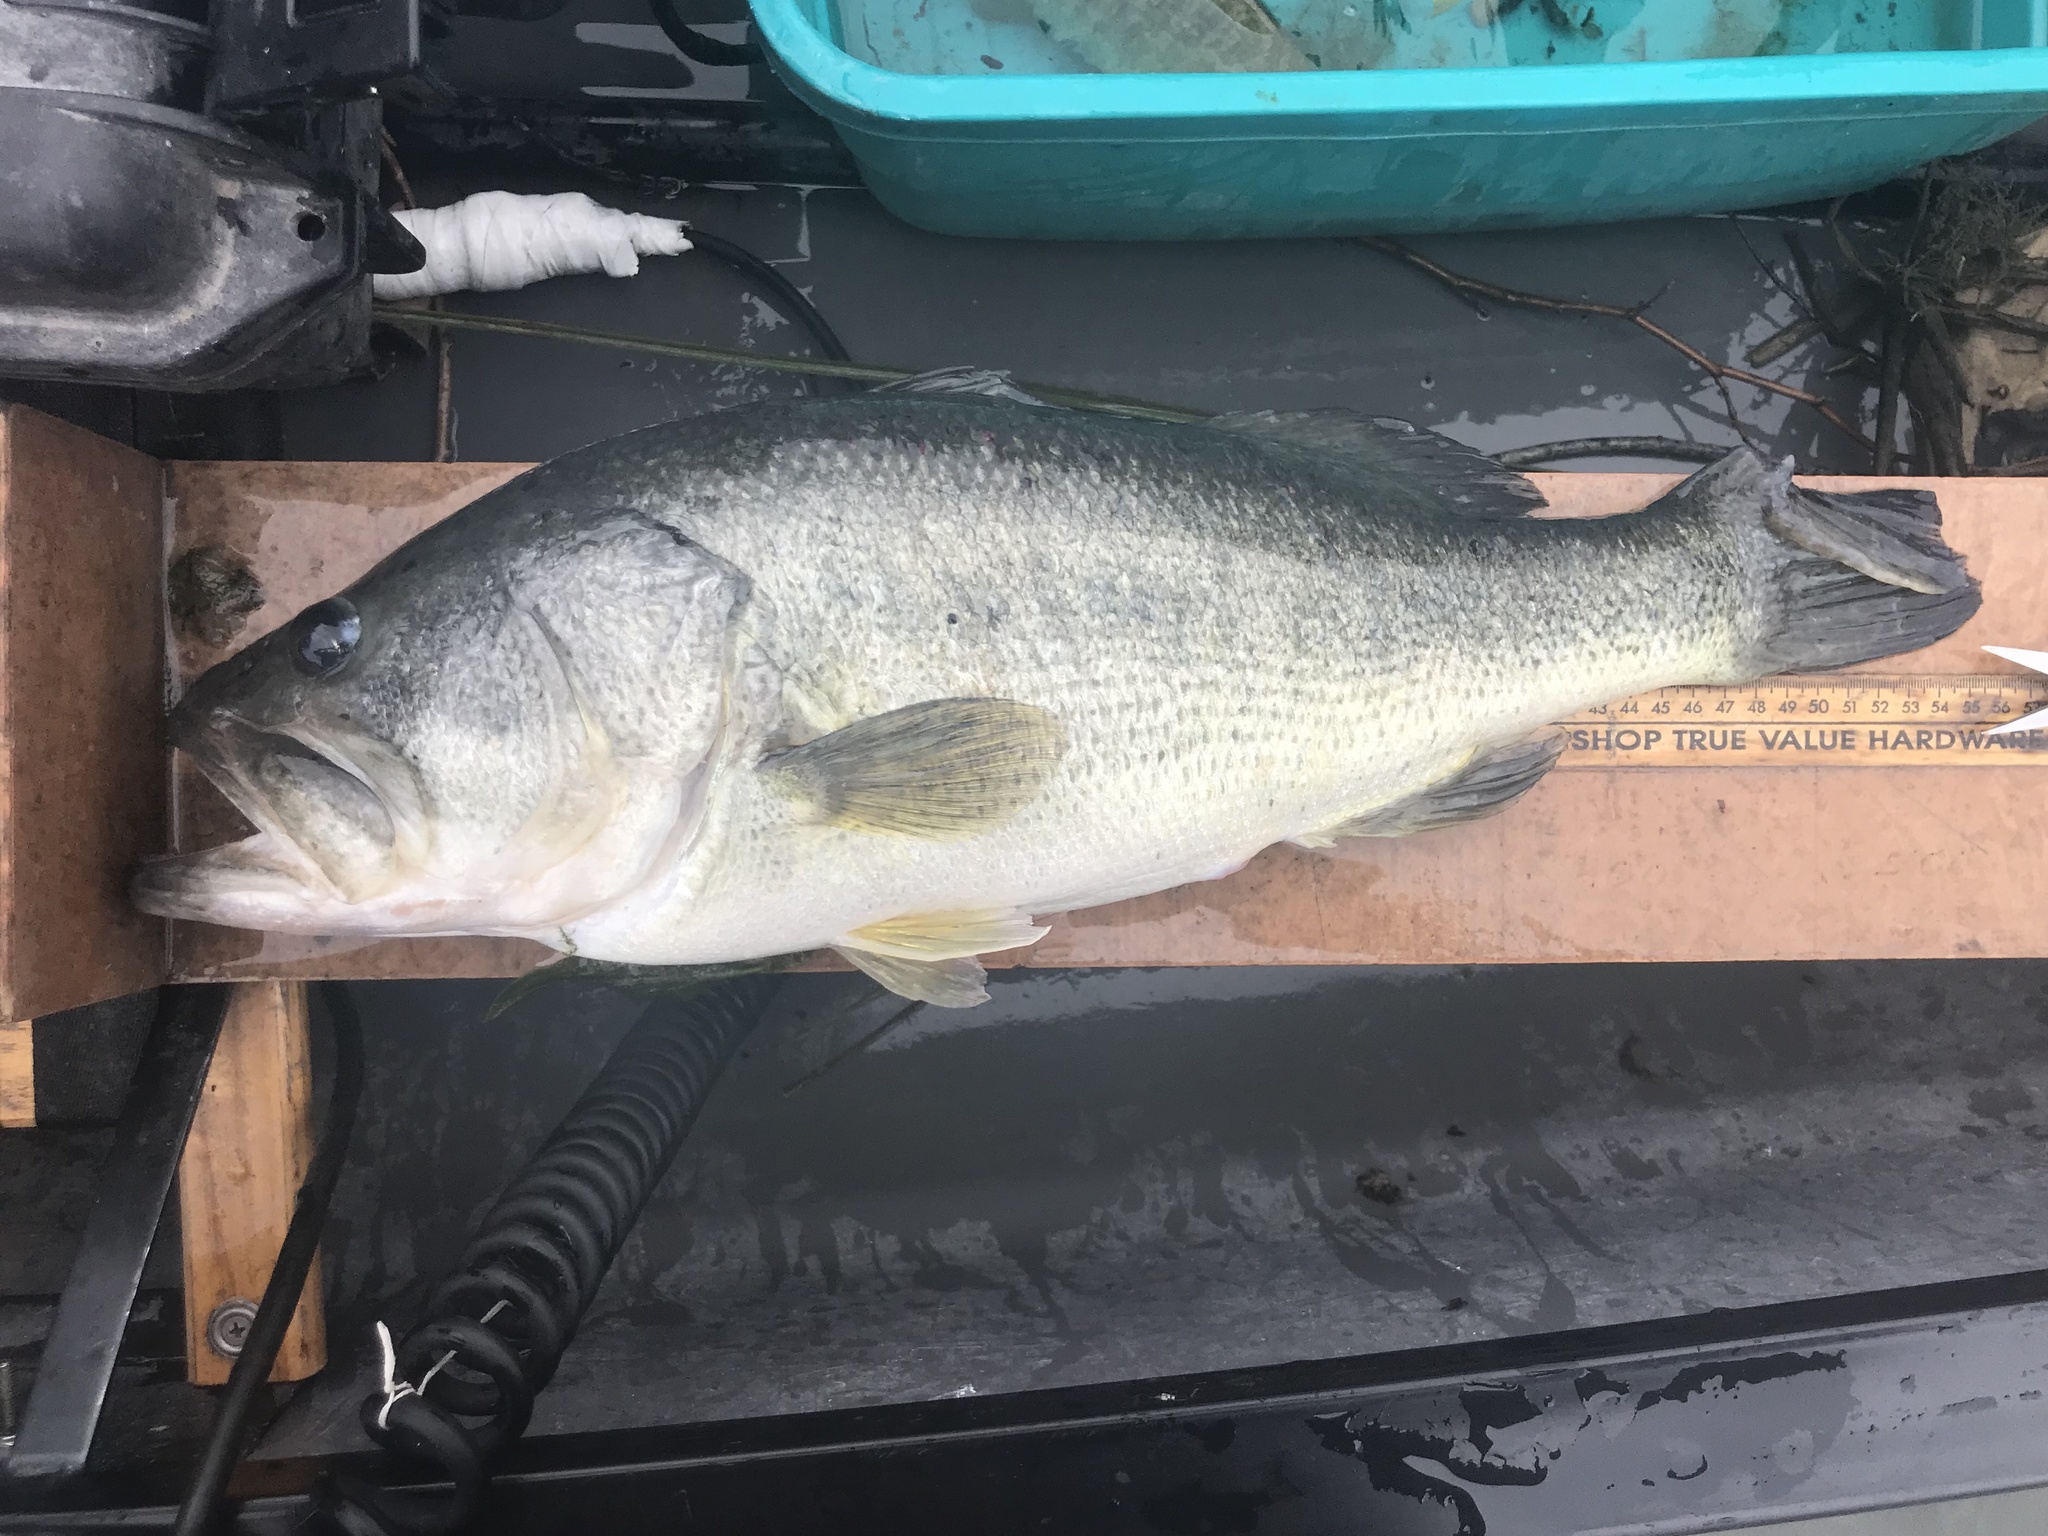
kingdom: Animalia
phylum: Chordata
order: Perciformes
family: Centrarchidae
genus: Micropterus
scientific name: Micropterus
